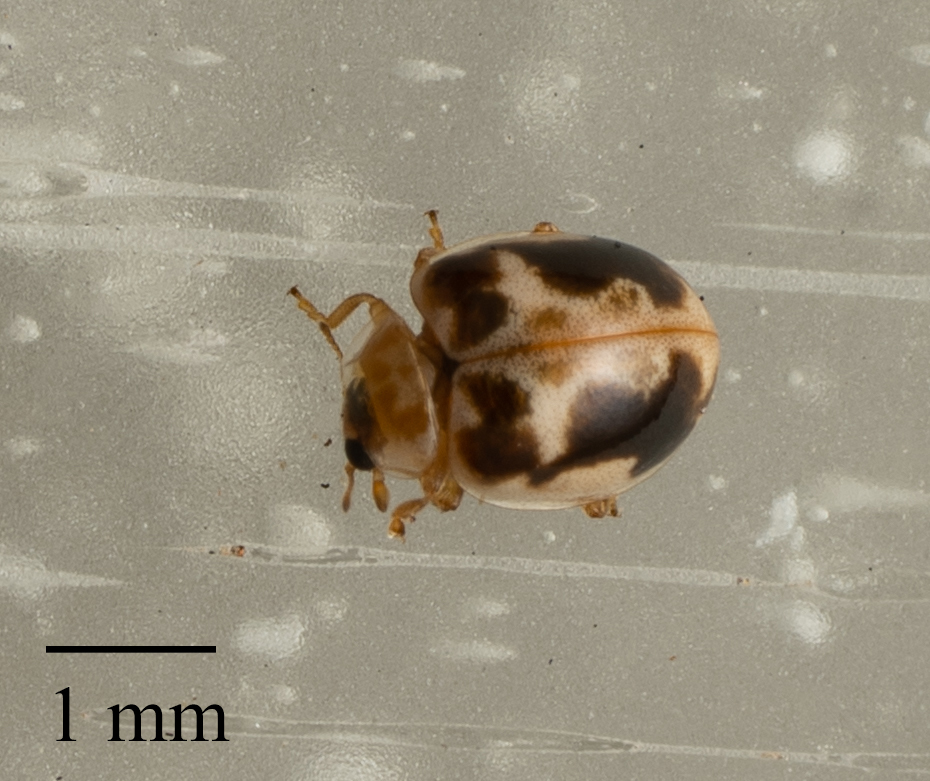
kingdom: Animalia
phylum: Arthropoda
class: Insecta
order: Coleoptera
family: Coccinellidae
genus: Psyllobora
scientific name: Psyllobora renifer
